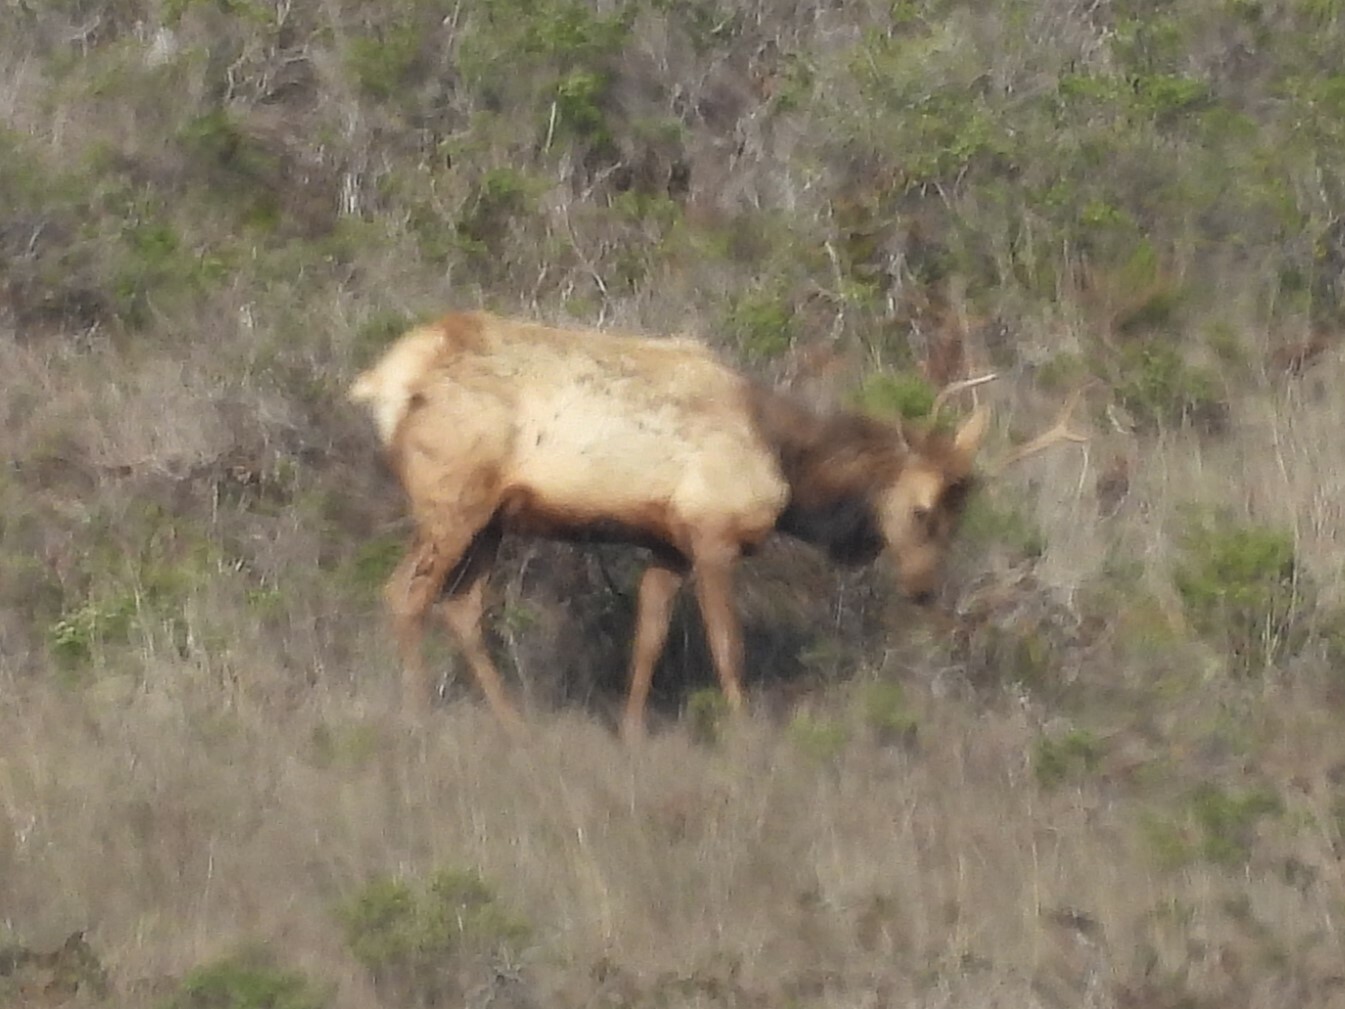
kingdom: Animalia
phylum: Chordata
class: Mammalia
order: Artiodactyla
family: Cervidae
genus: Cervus
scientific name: Cervus elaphus
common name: Red deer
